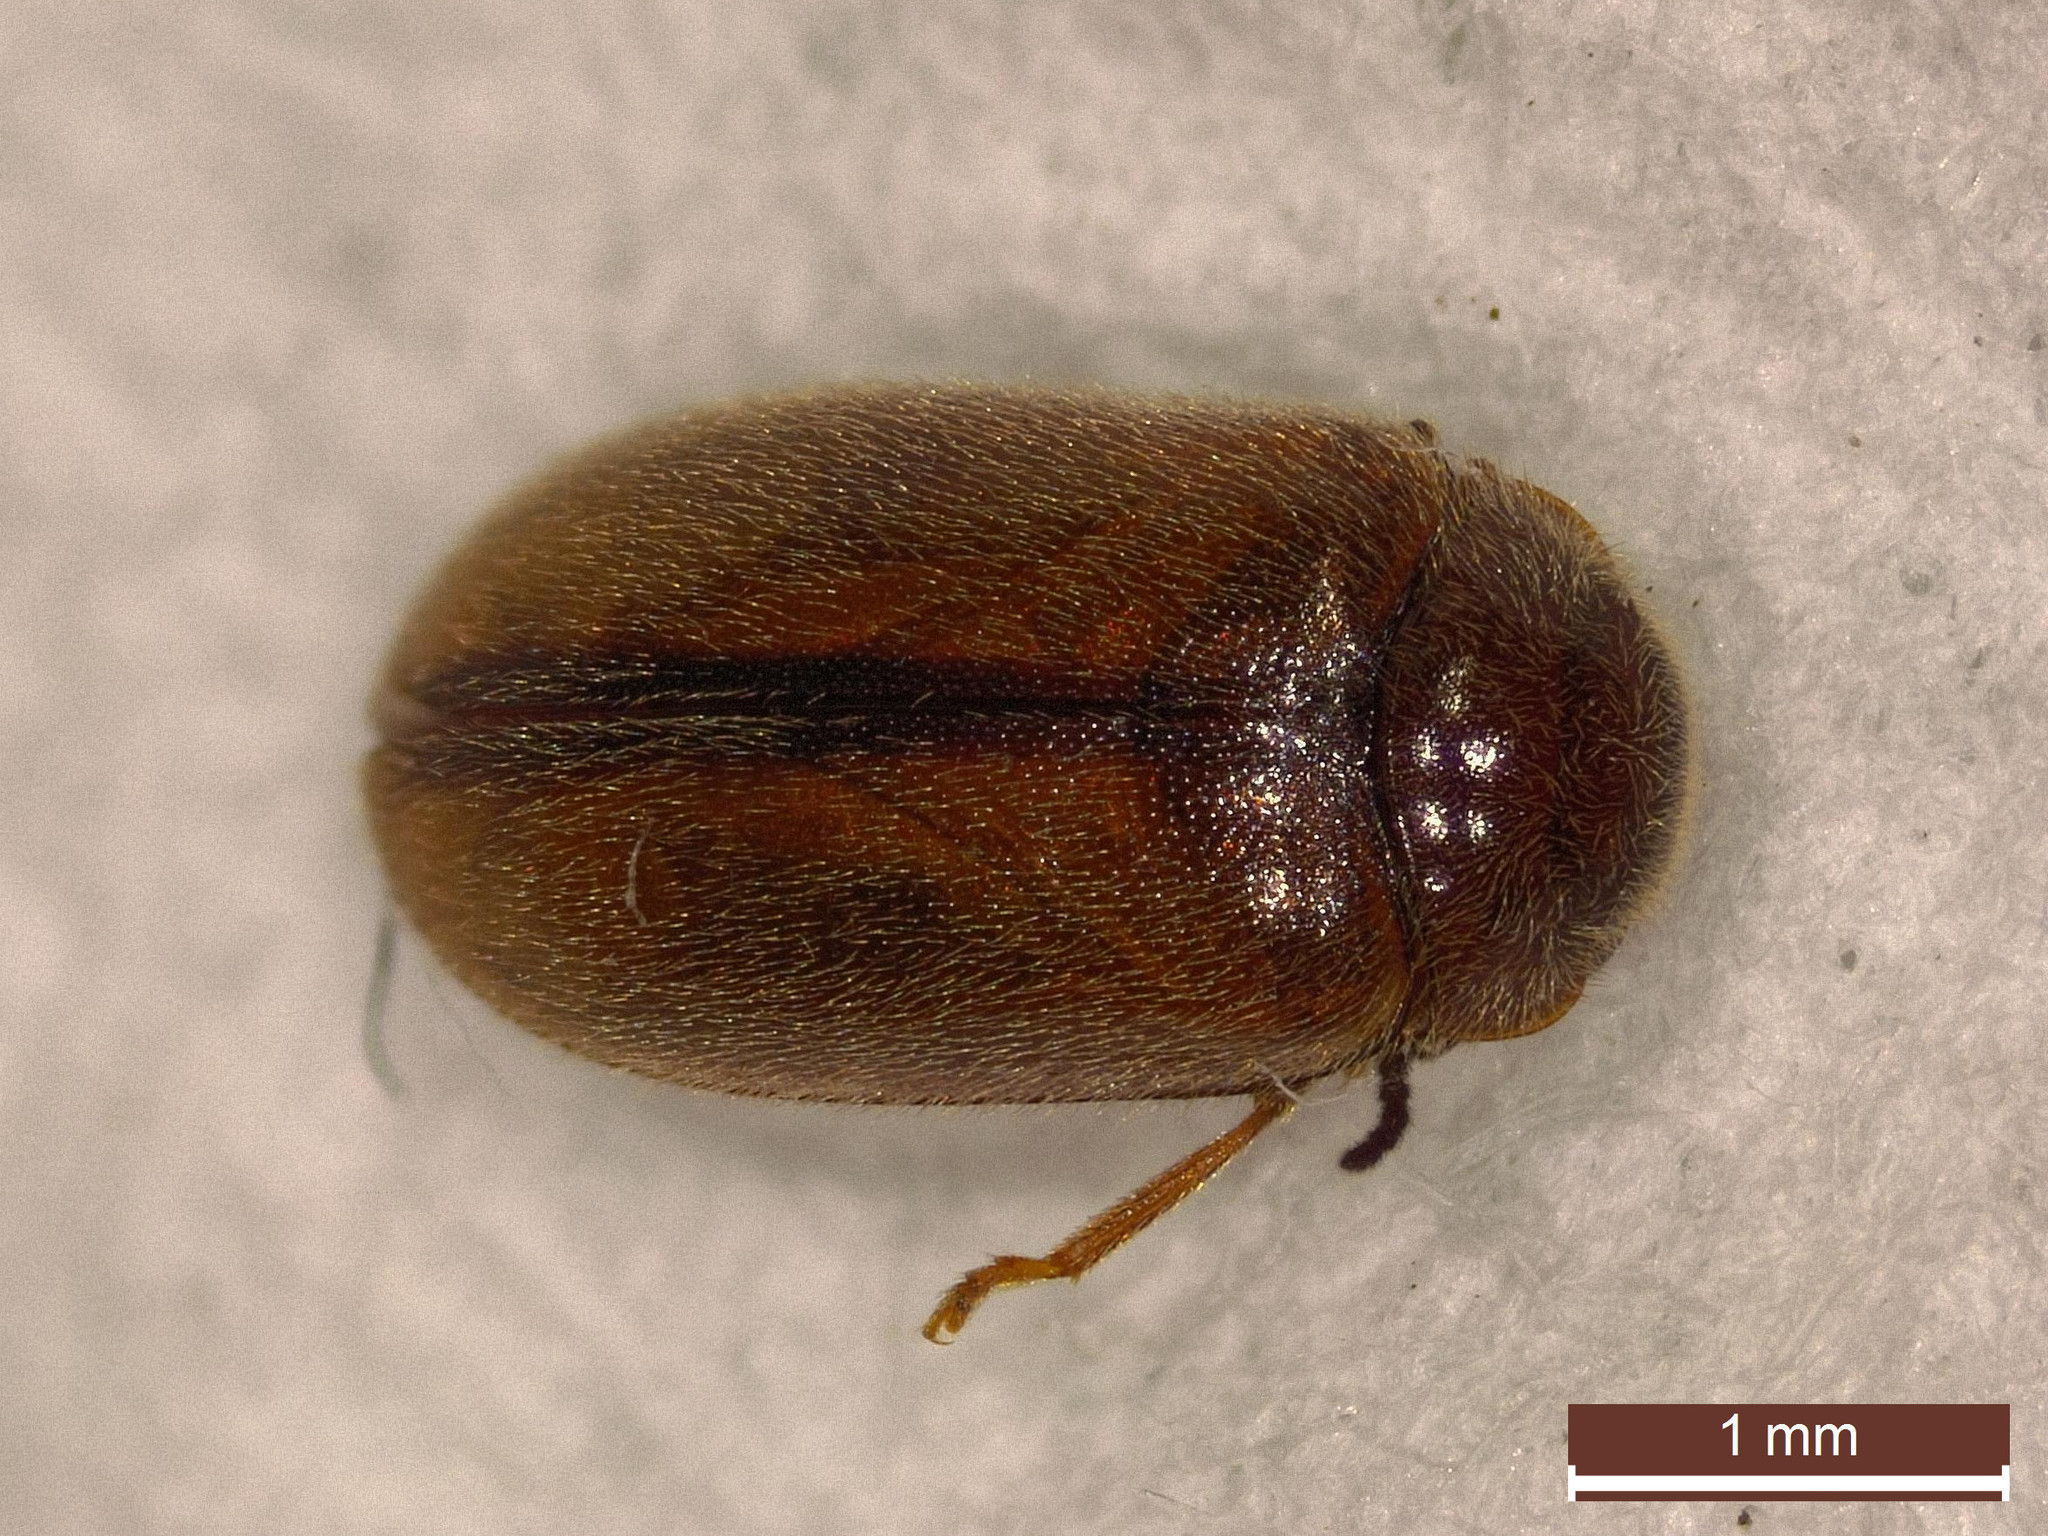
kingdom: Animalia
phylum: Arthropoda
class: Insecta
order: Coleoptera
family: Scirtidae
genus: Contacyphon
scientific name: Contacyphon laevipennis
